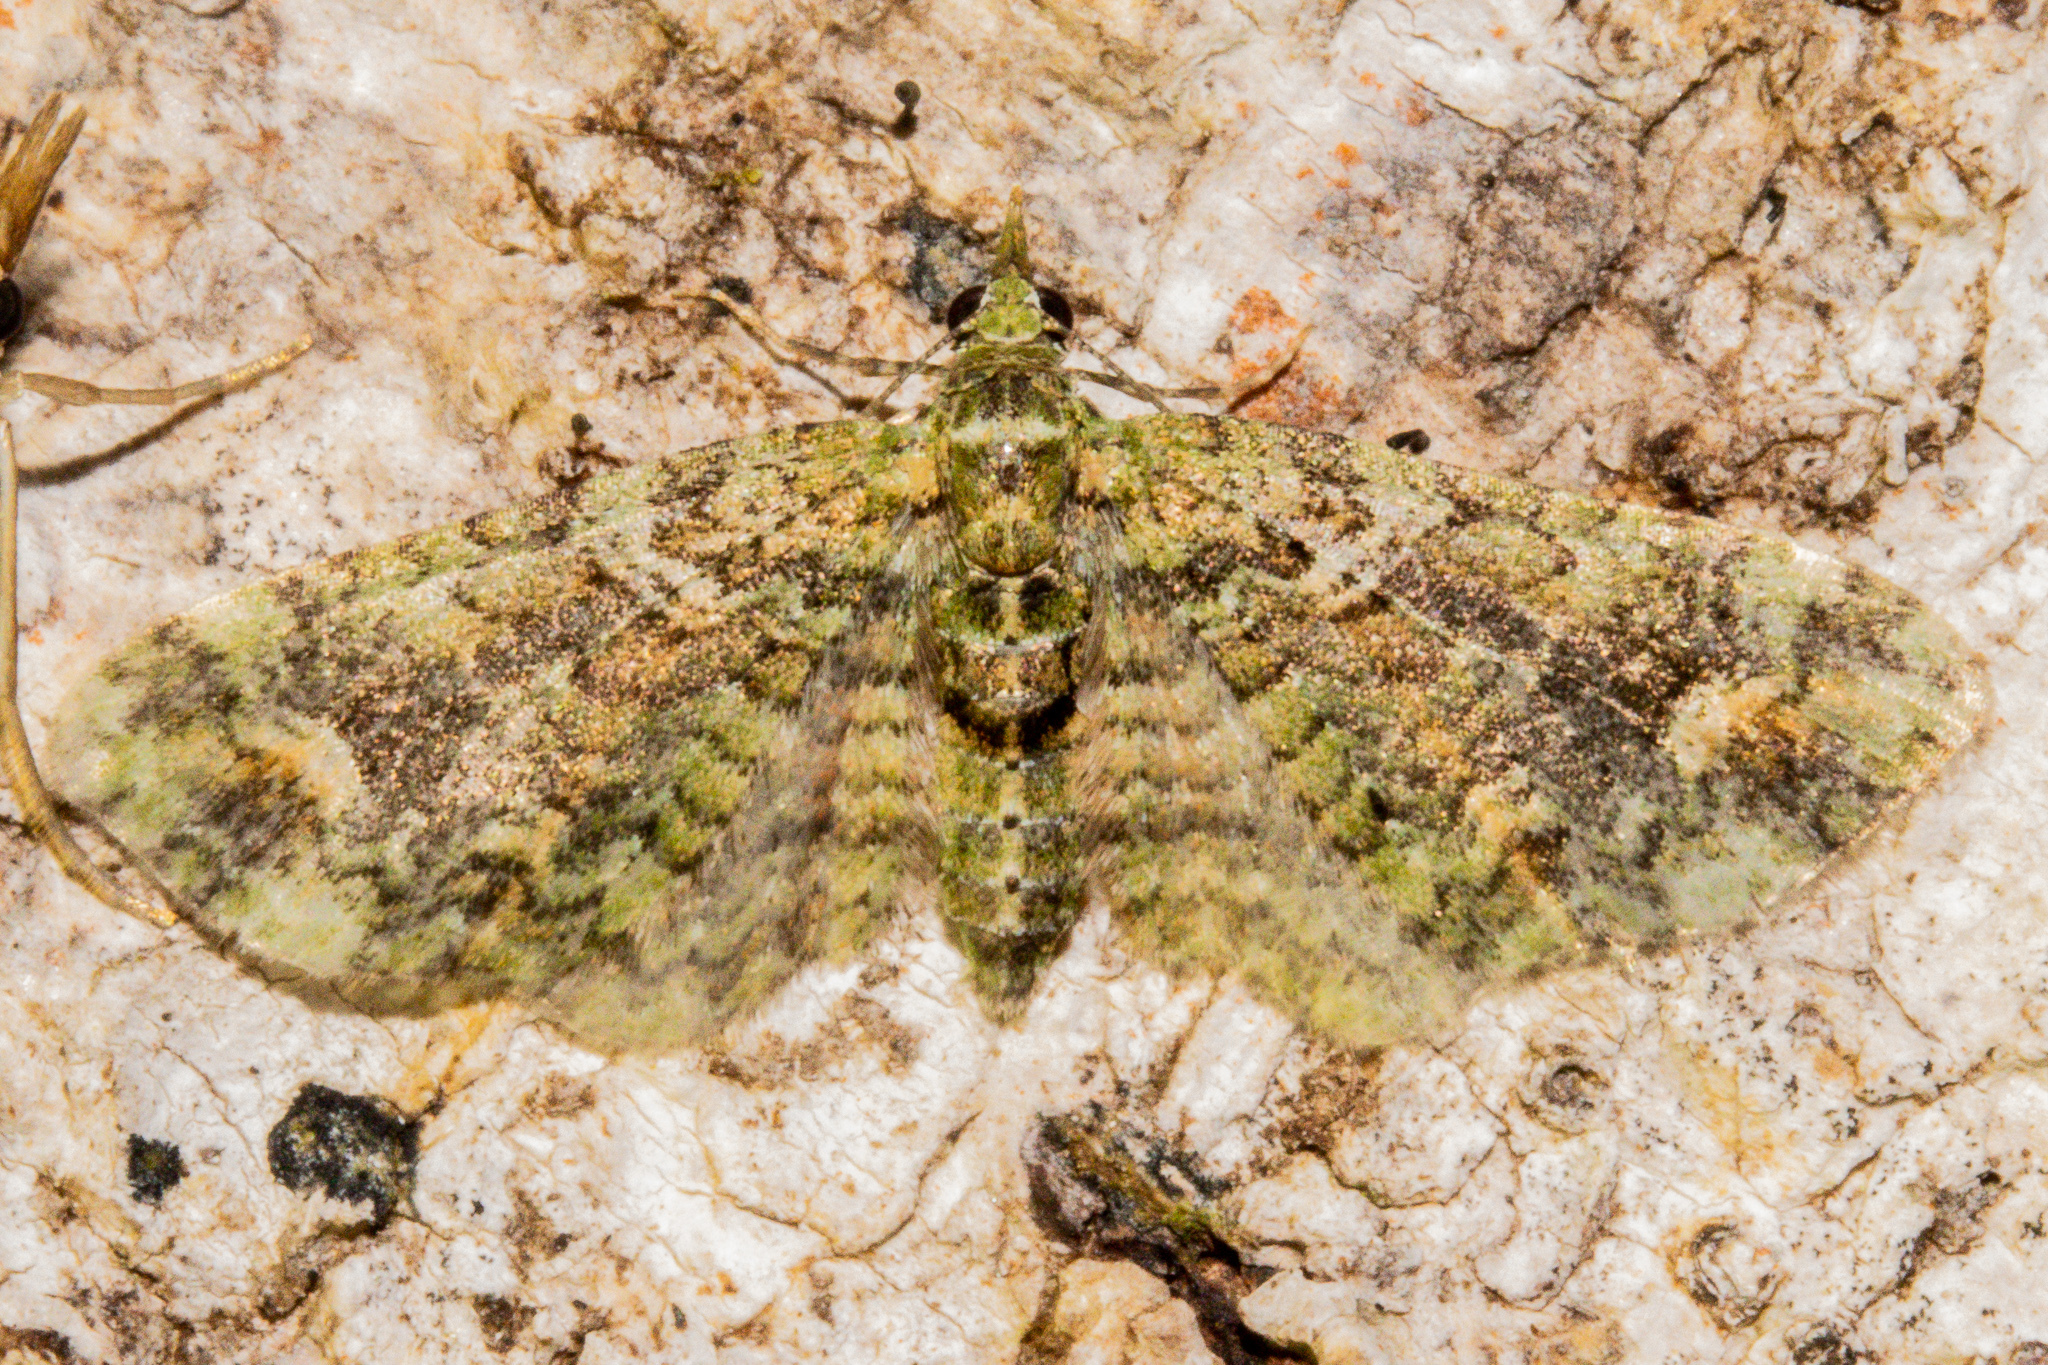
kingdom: Animalia
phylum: Arthropoda
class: Insecta
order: Lepidoptera
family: Geometridae
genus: Idaea
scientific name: Idaea mutanda
